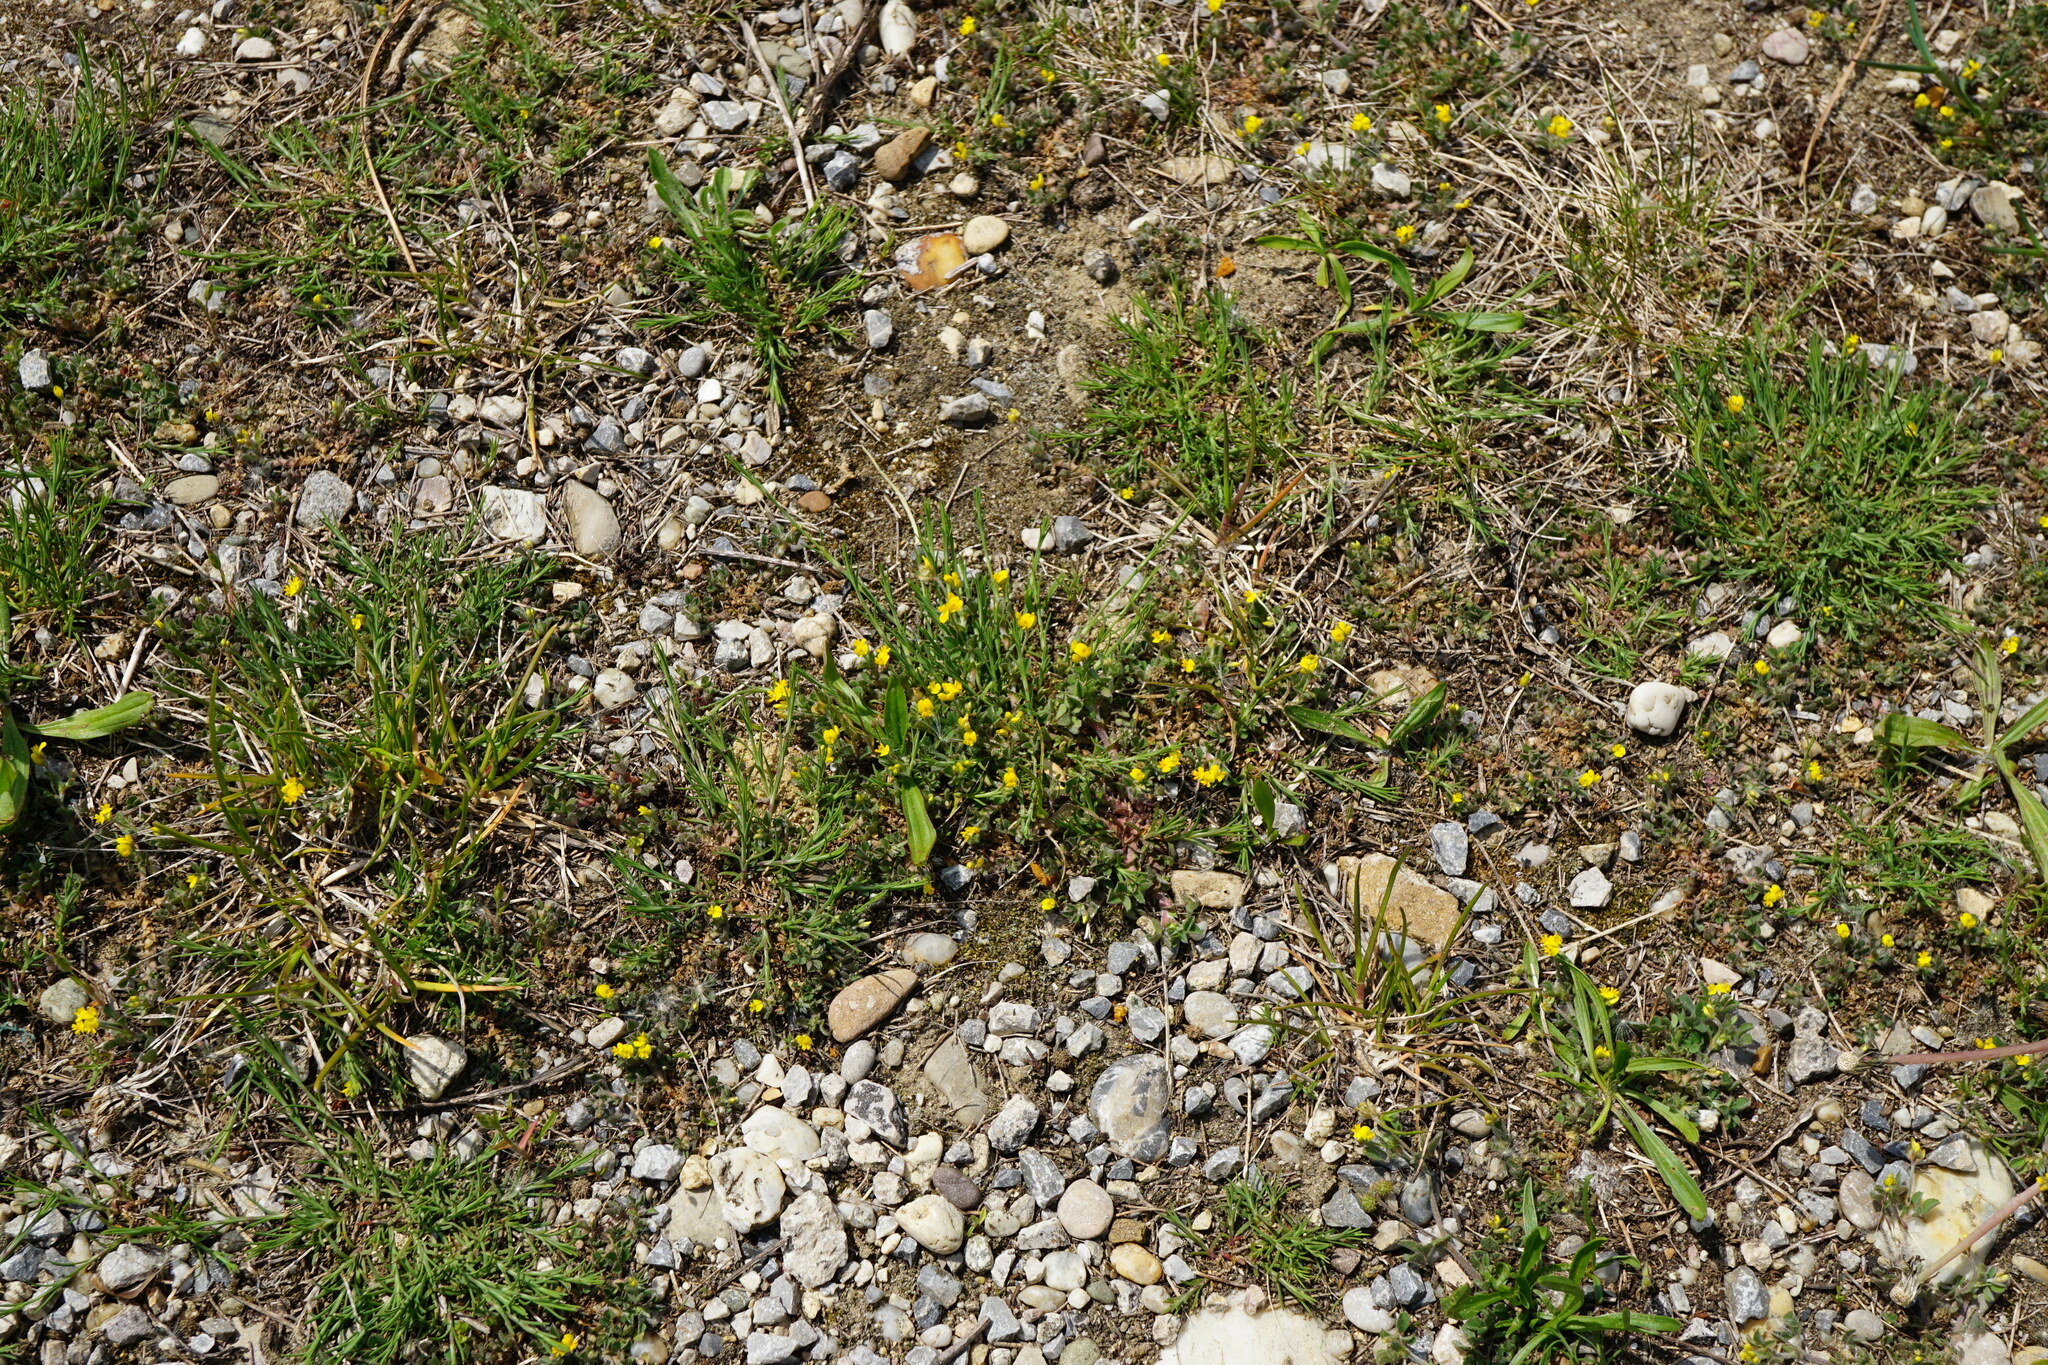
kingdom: Plantae
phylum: Tracheophyta
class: Magnoliopsida
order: Fabales
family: Fabaceae
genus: Medicago
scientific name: Medicago minima
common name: Little bur-clover
